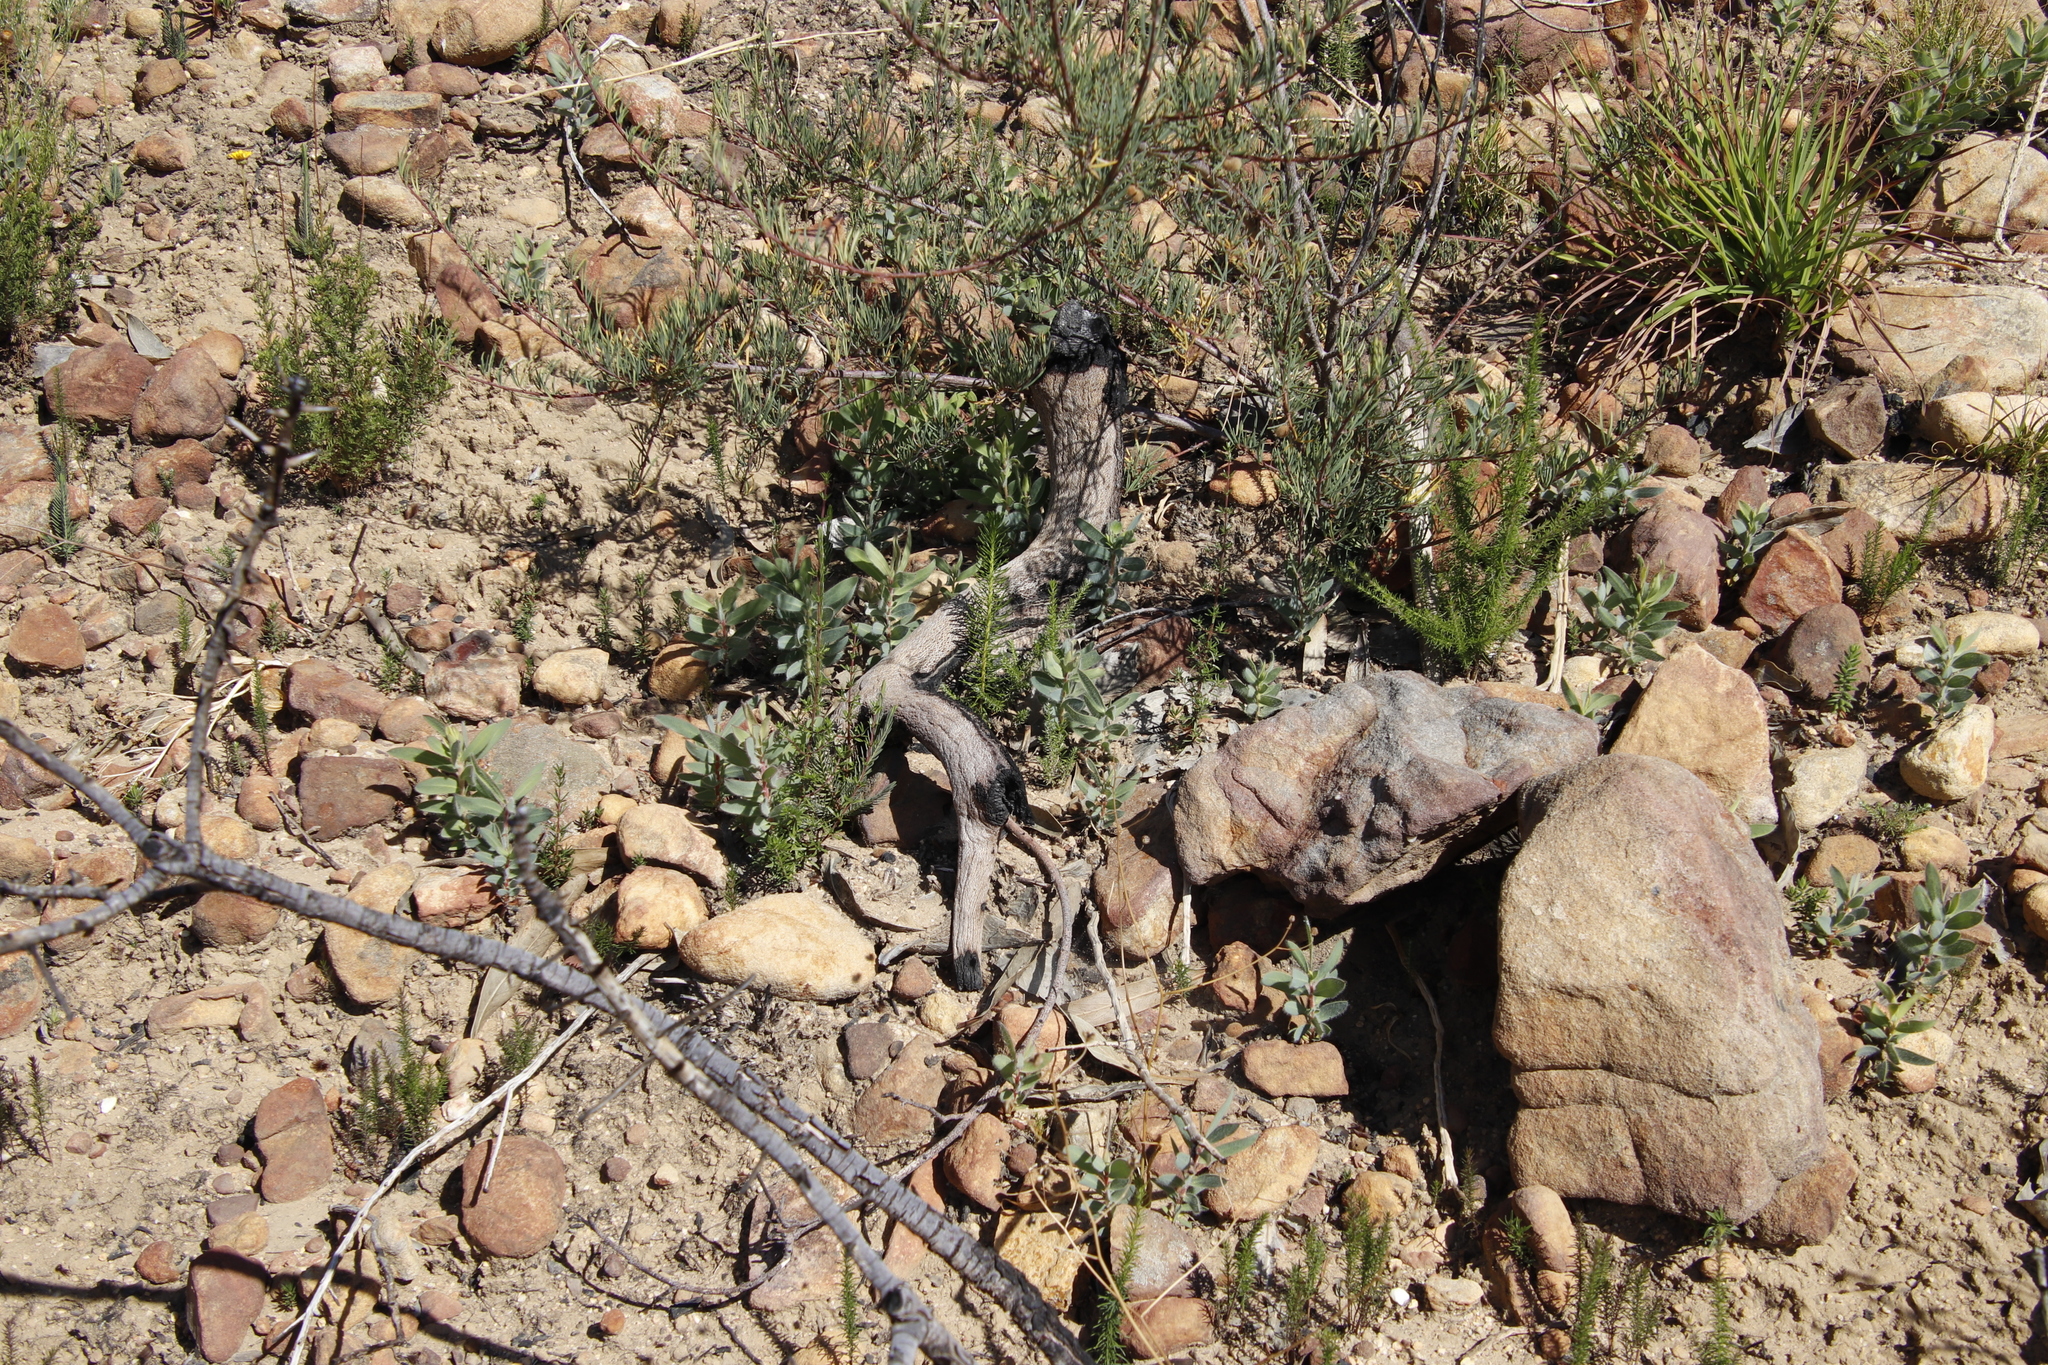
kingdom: Plantae
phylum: Tracheophyta
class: Magnoliopsida
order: Proteales
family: Proteaceae
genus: Protea
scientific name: Protea laurifolia
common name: Grey-leaf sugarbsh
